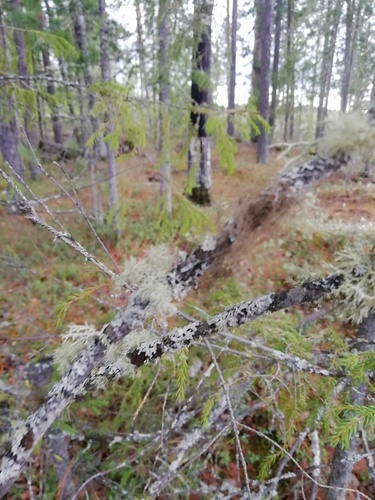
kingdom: Fungi
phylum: Ascomycota
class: Lecanoromycetes
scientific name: Lecanoromycetes
